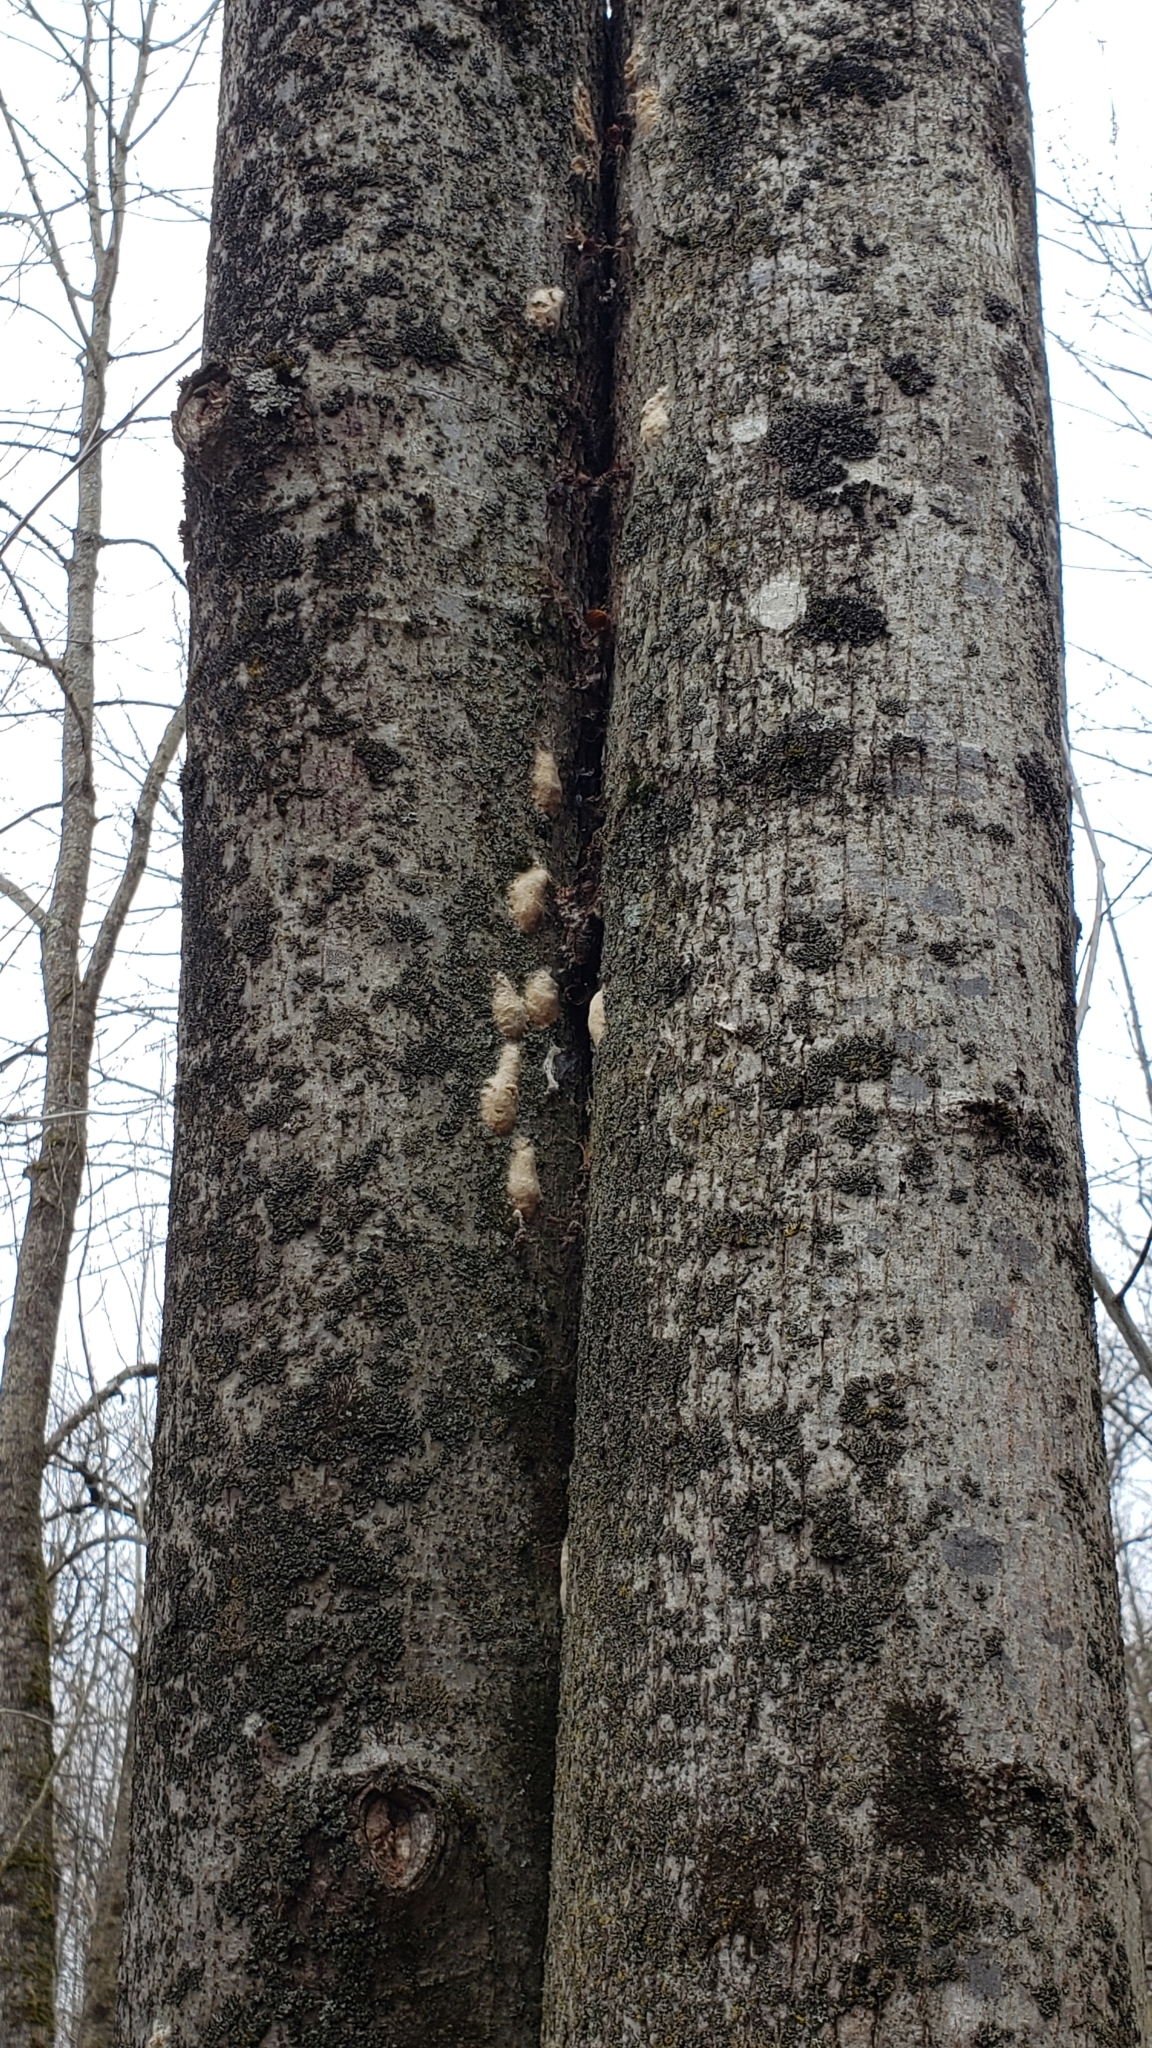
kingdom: Animalia
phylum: Arthropoda
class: Insecta
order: Lepidoptera
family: Erebidae
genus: Lymantria
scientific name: Lymantria dispar
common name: Gypsy moth
